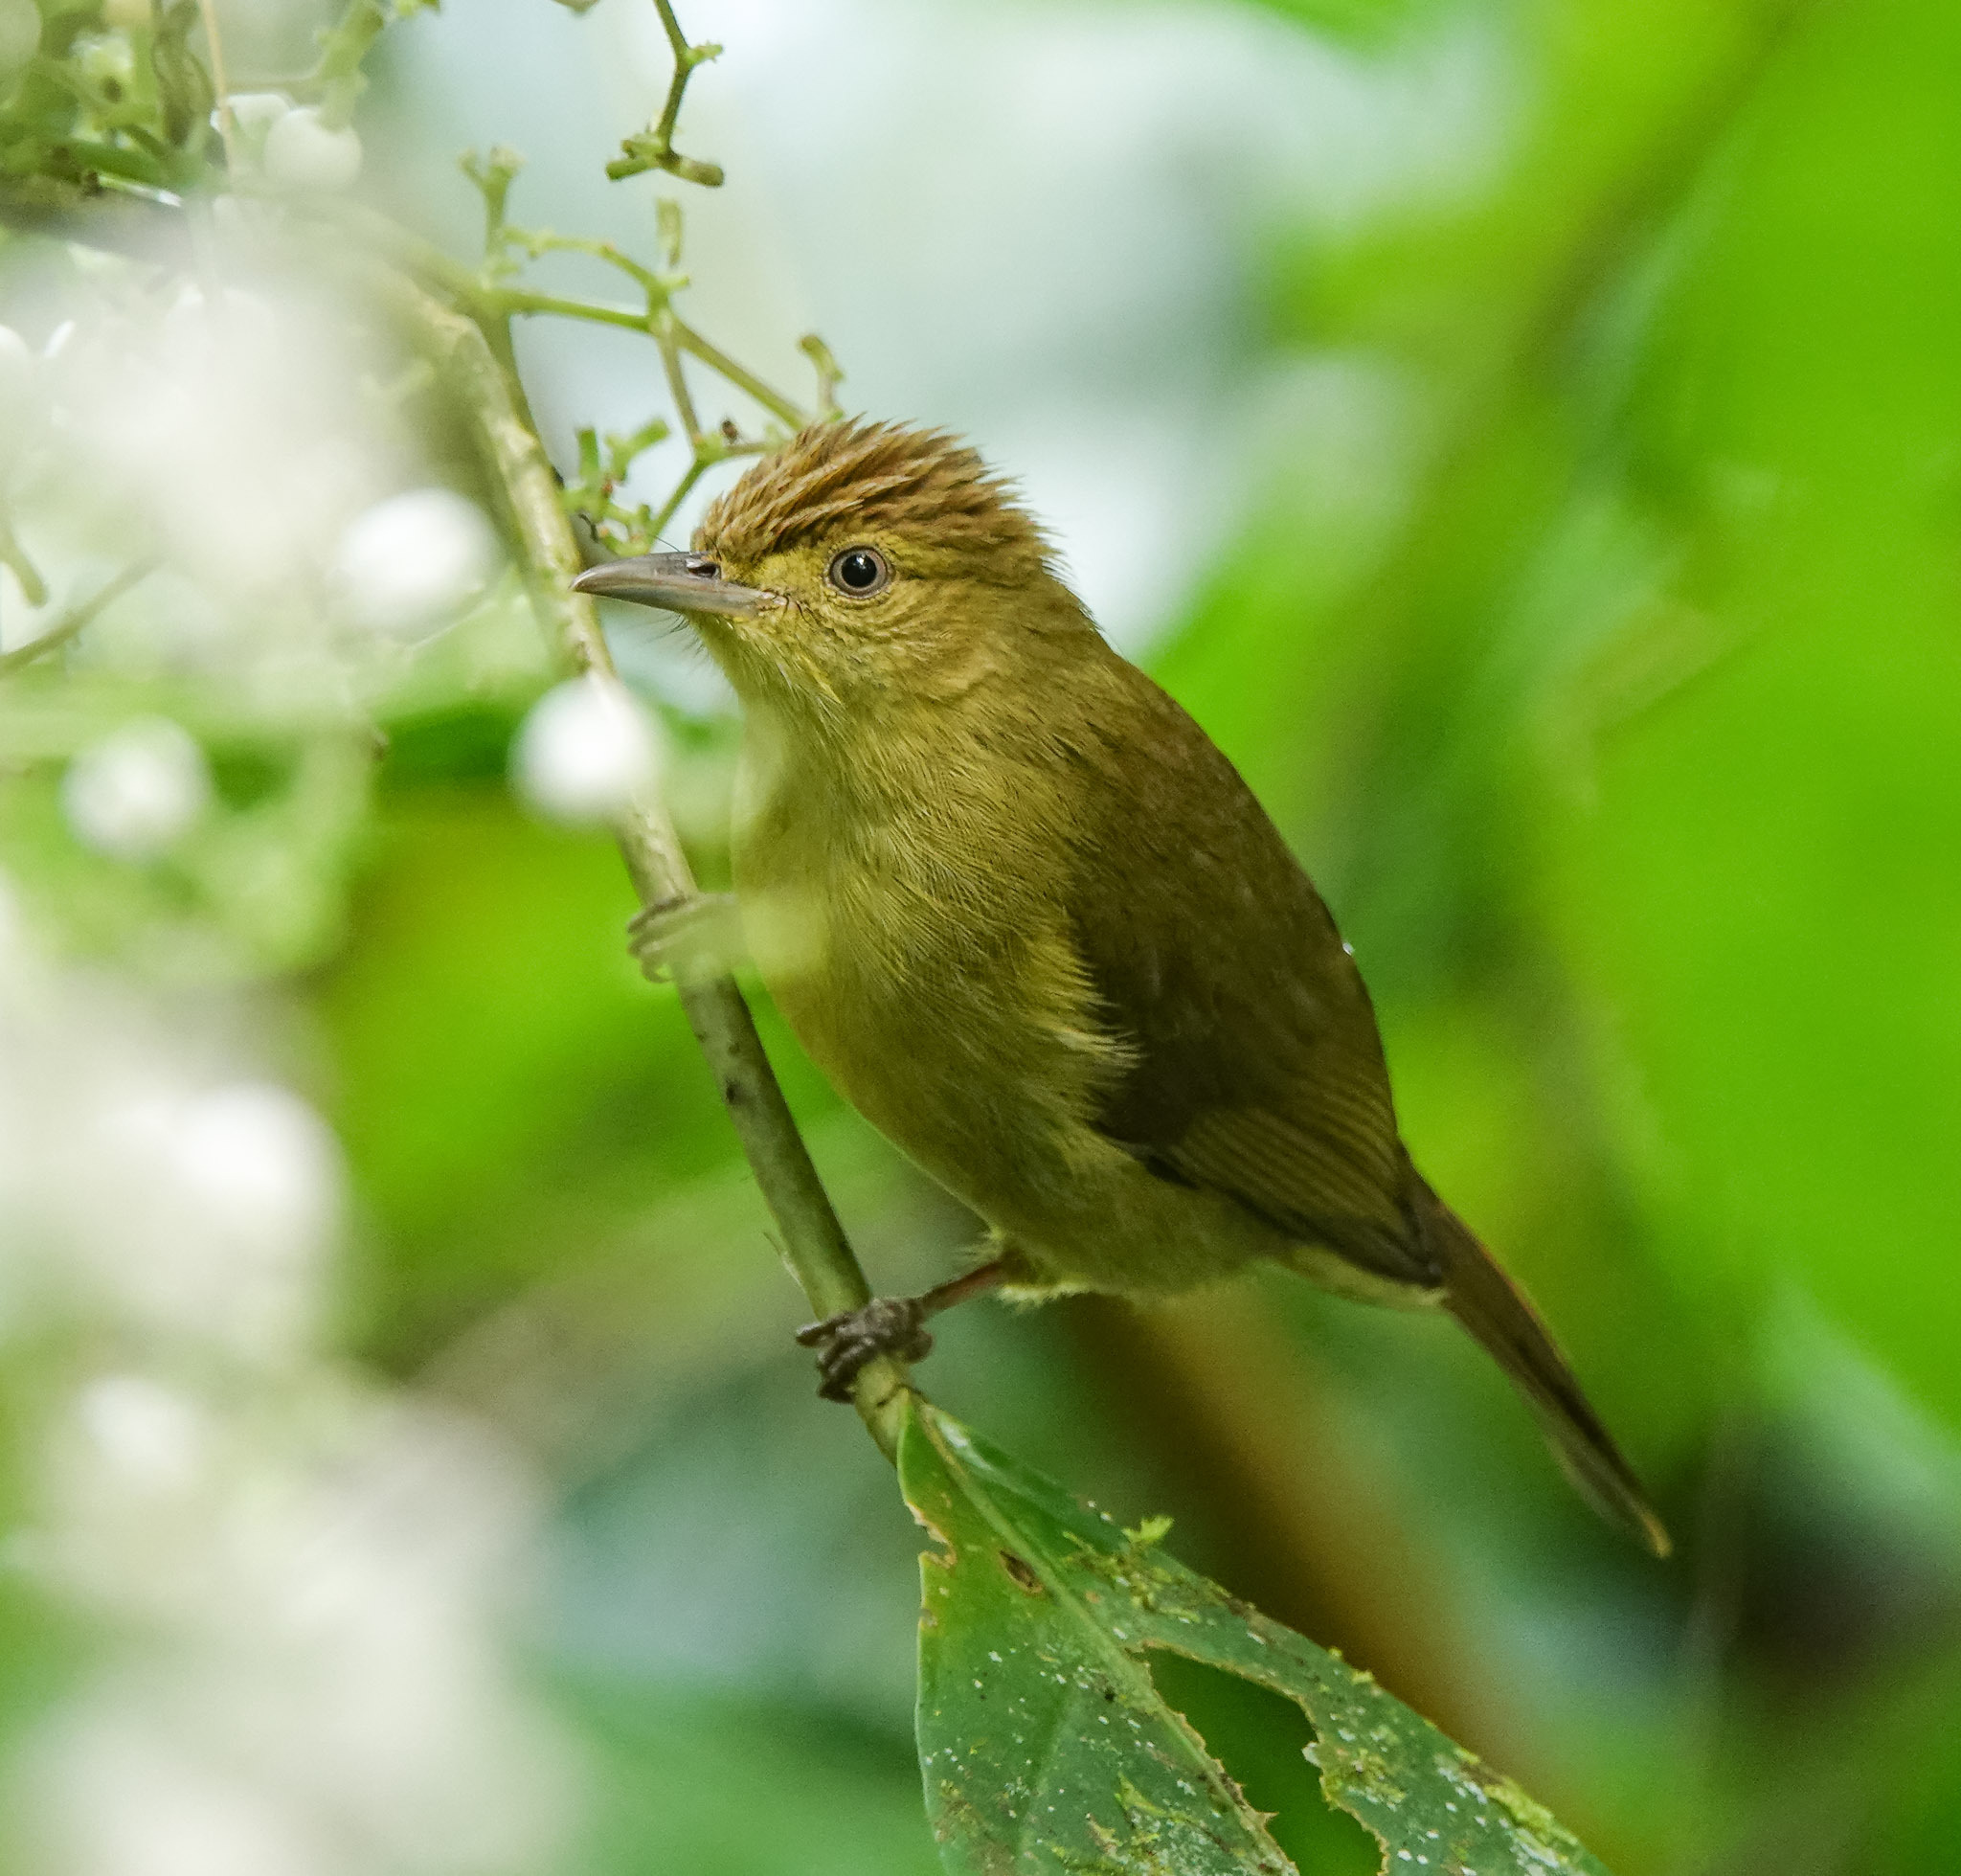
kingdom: Animalia
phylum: Chordata
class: Aves
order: Passeriformes
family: Pycnonotidae
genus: Iole
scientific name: Iole virescens
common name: Olive bulbul
